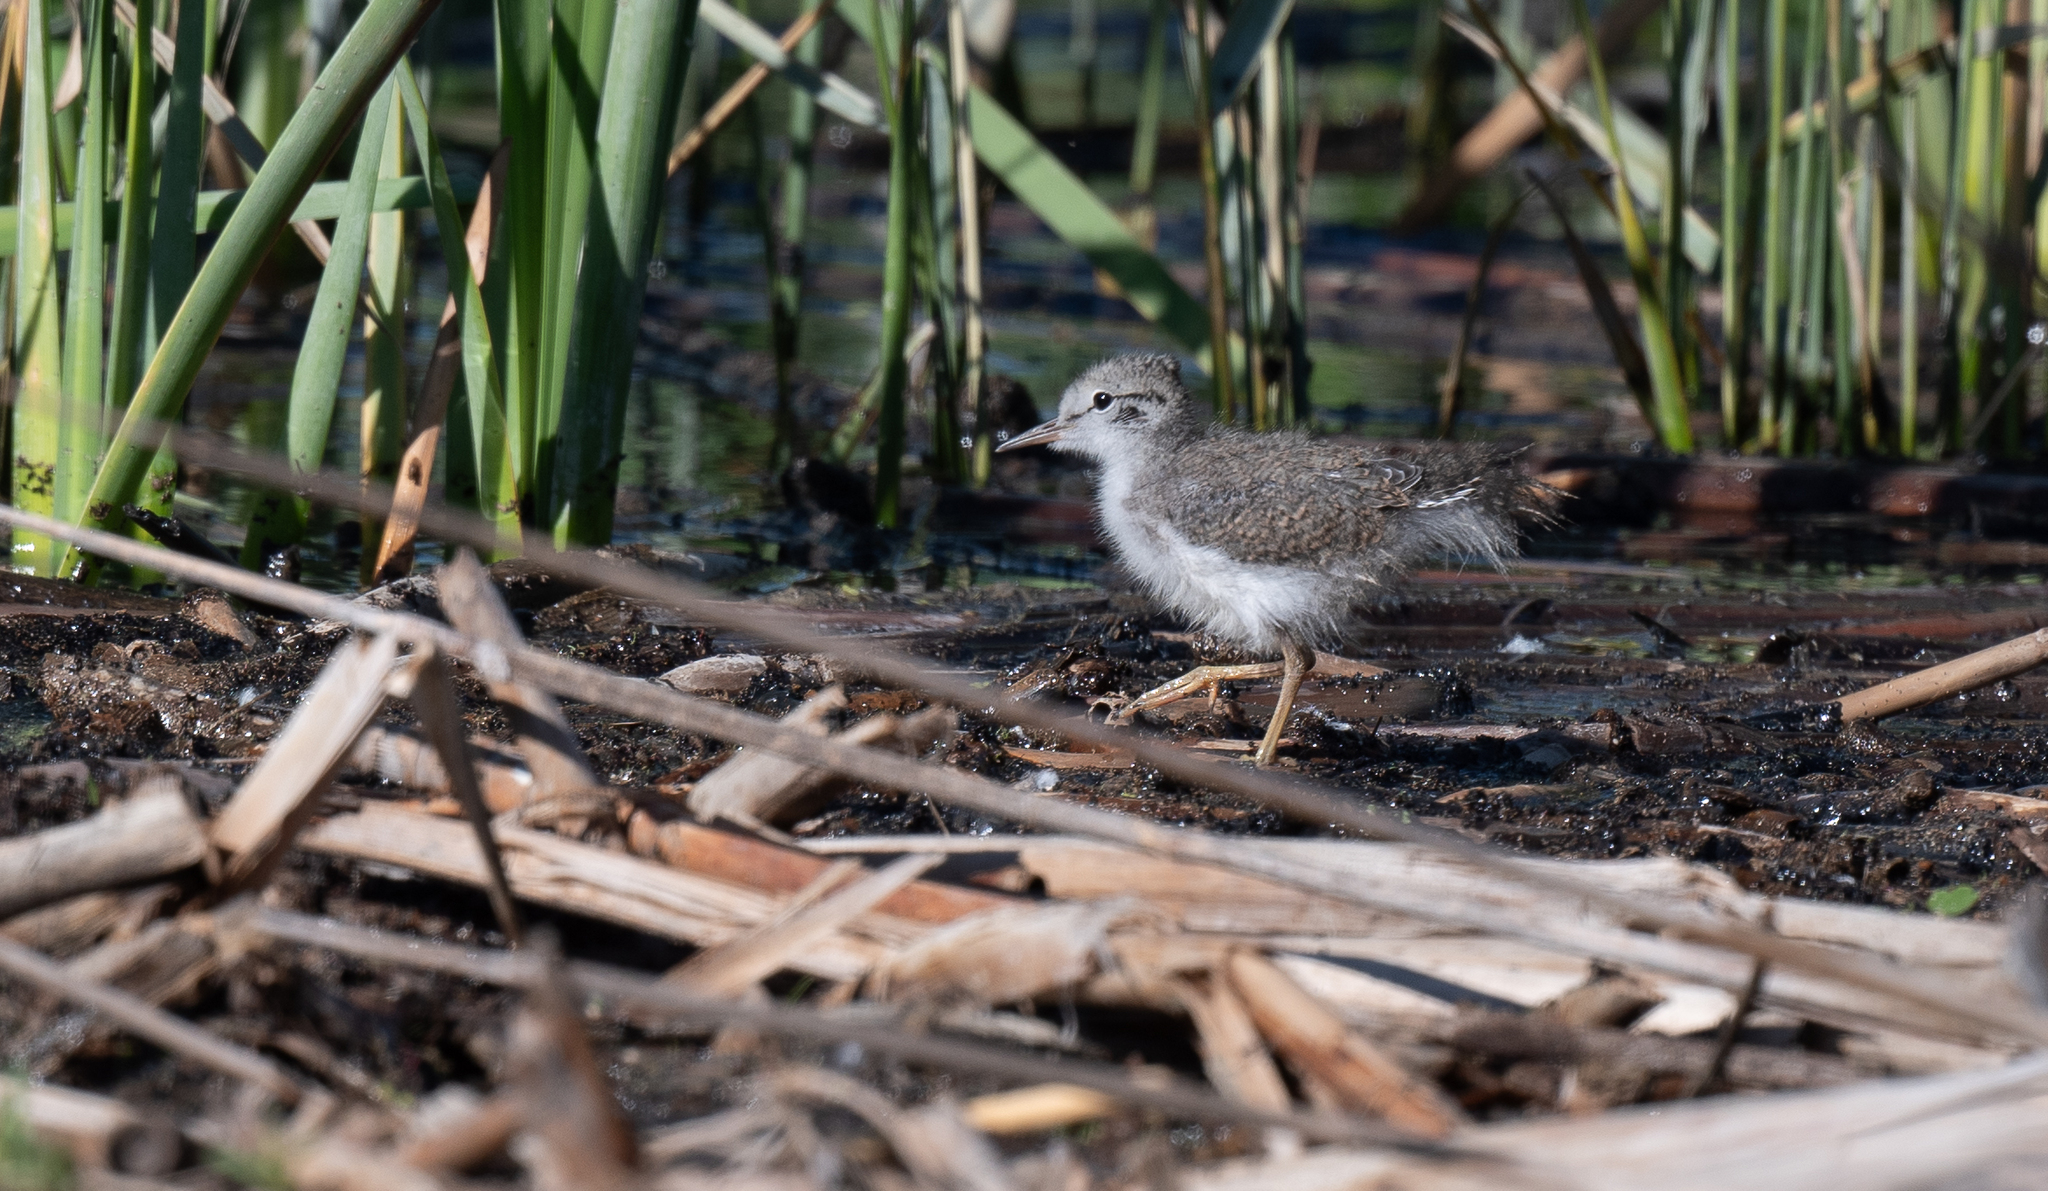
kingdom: Animalia
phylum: Chordata
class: Aves
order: Charadriiformes
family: Scolopacidae
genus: Actitis
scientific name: Actitis macularius
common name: Spotted sandpiper
